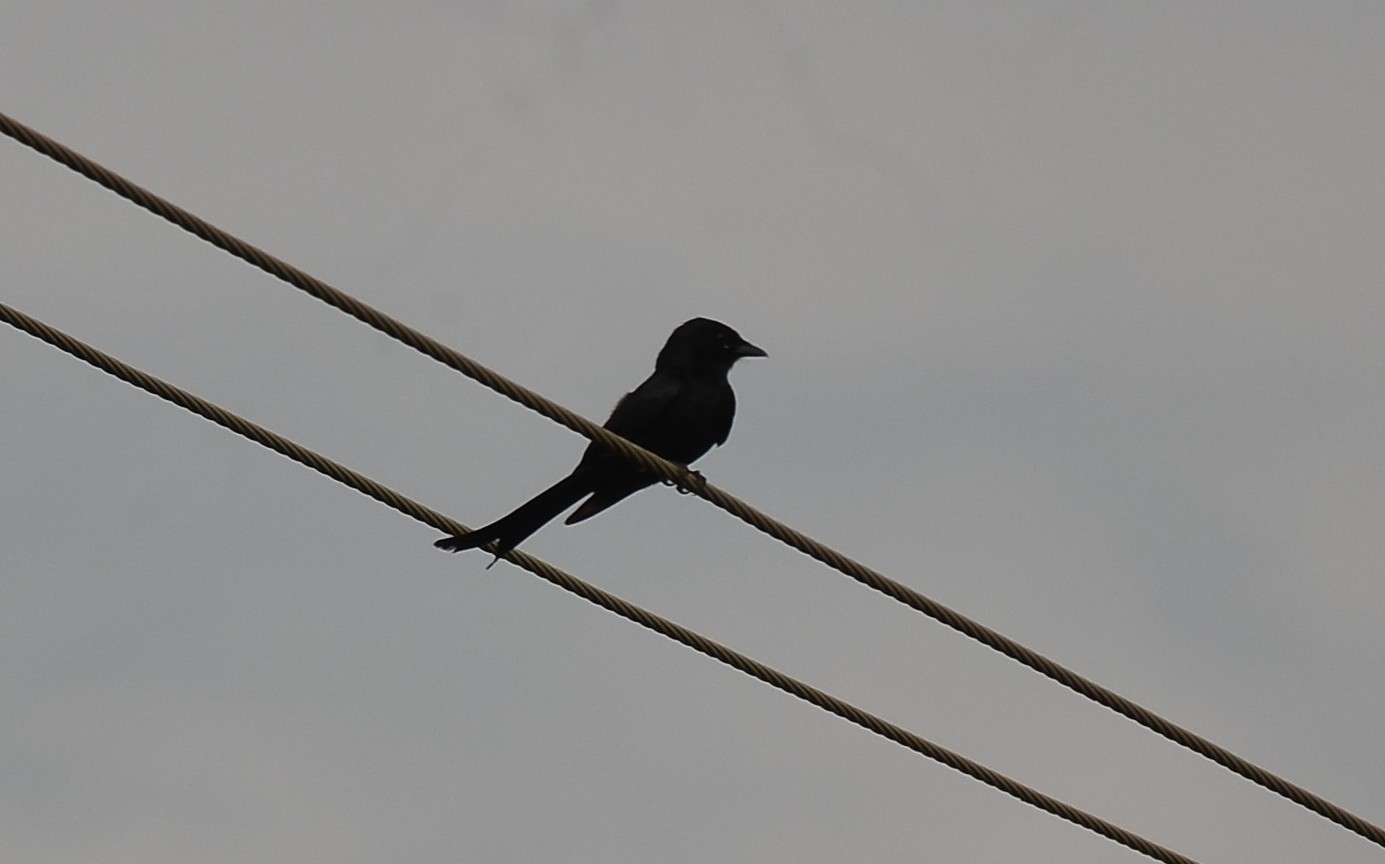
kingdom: Animalia
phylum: Chordata
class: Aves
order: Passeriformes
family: Dicruridae
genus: Dicrurus
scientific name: Dicrurus macrocercus
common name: Black drongo
